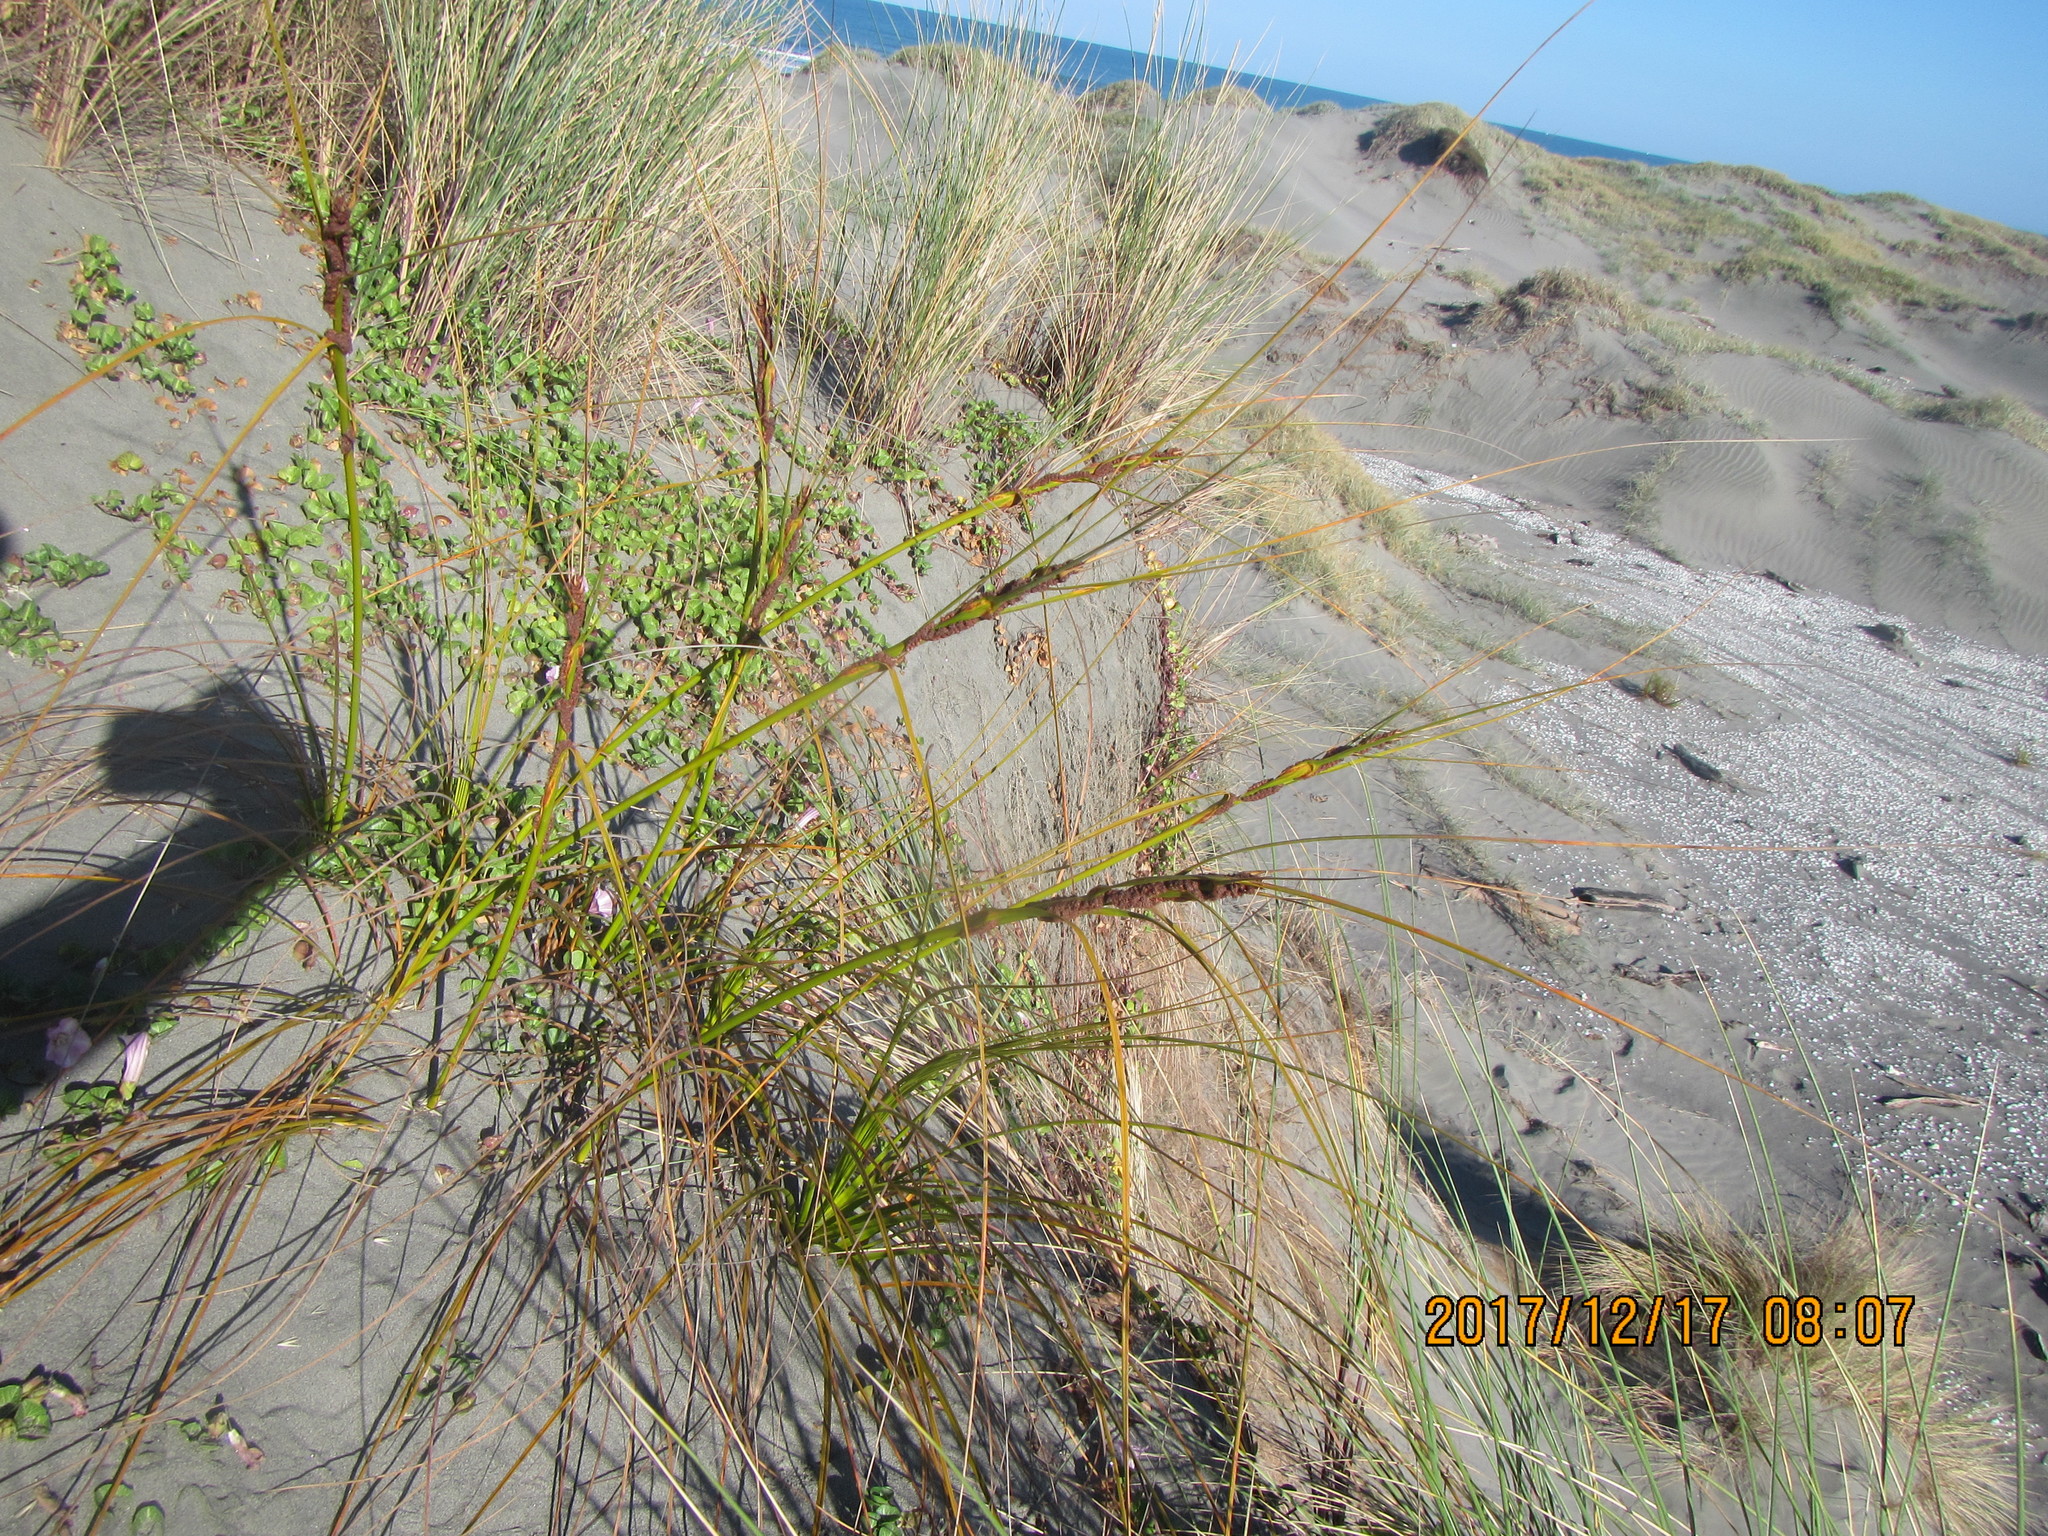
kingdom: Plantae
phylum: Tracheophyta
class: Liliopsida
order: Poales
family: Cyperaceae
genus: Ficinia
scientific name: Ficinia spiralis
